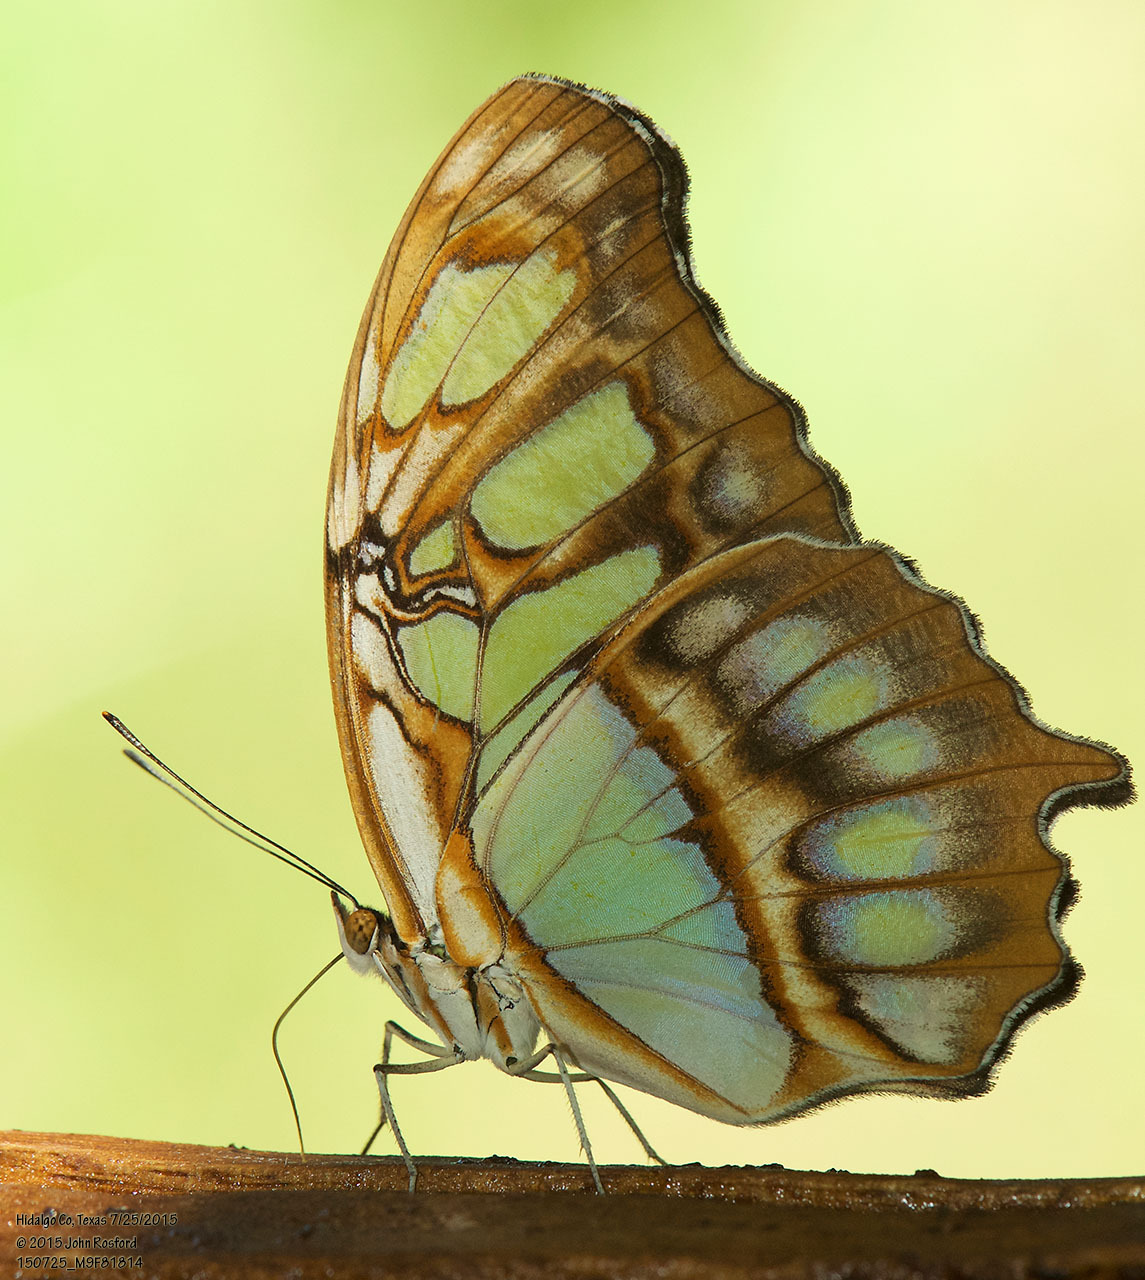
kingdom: Animalia
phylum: Arthropoda
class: Insecta
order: Lepidoptera
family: Nymphalidae
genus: Siproeta
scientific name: Siproeta stelenes
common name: Malachite
